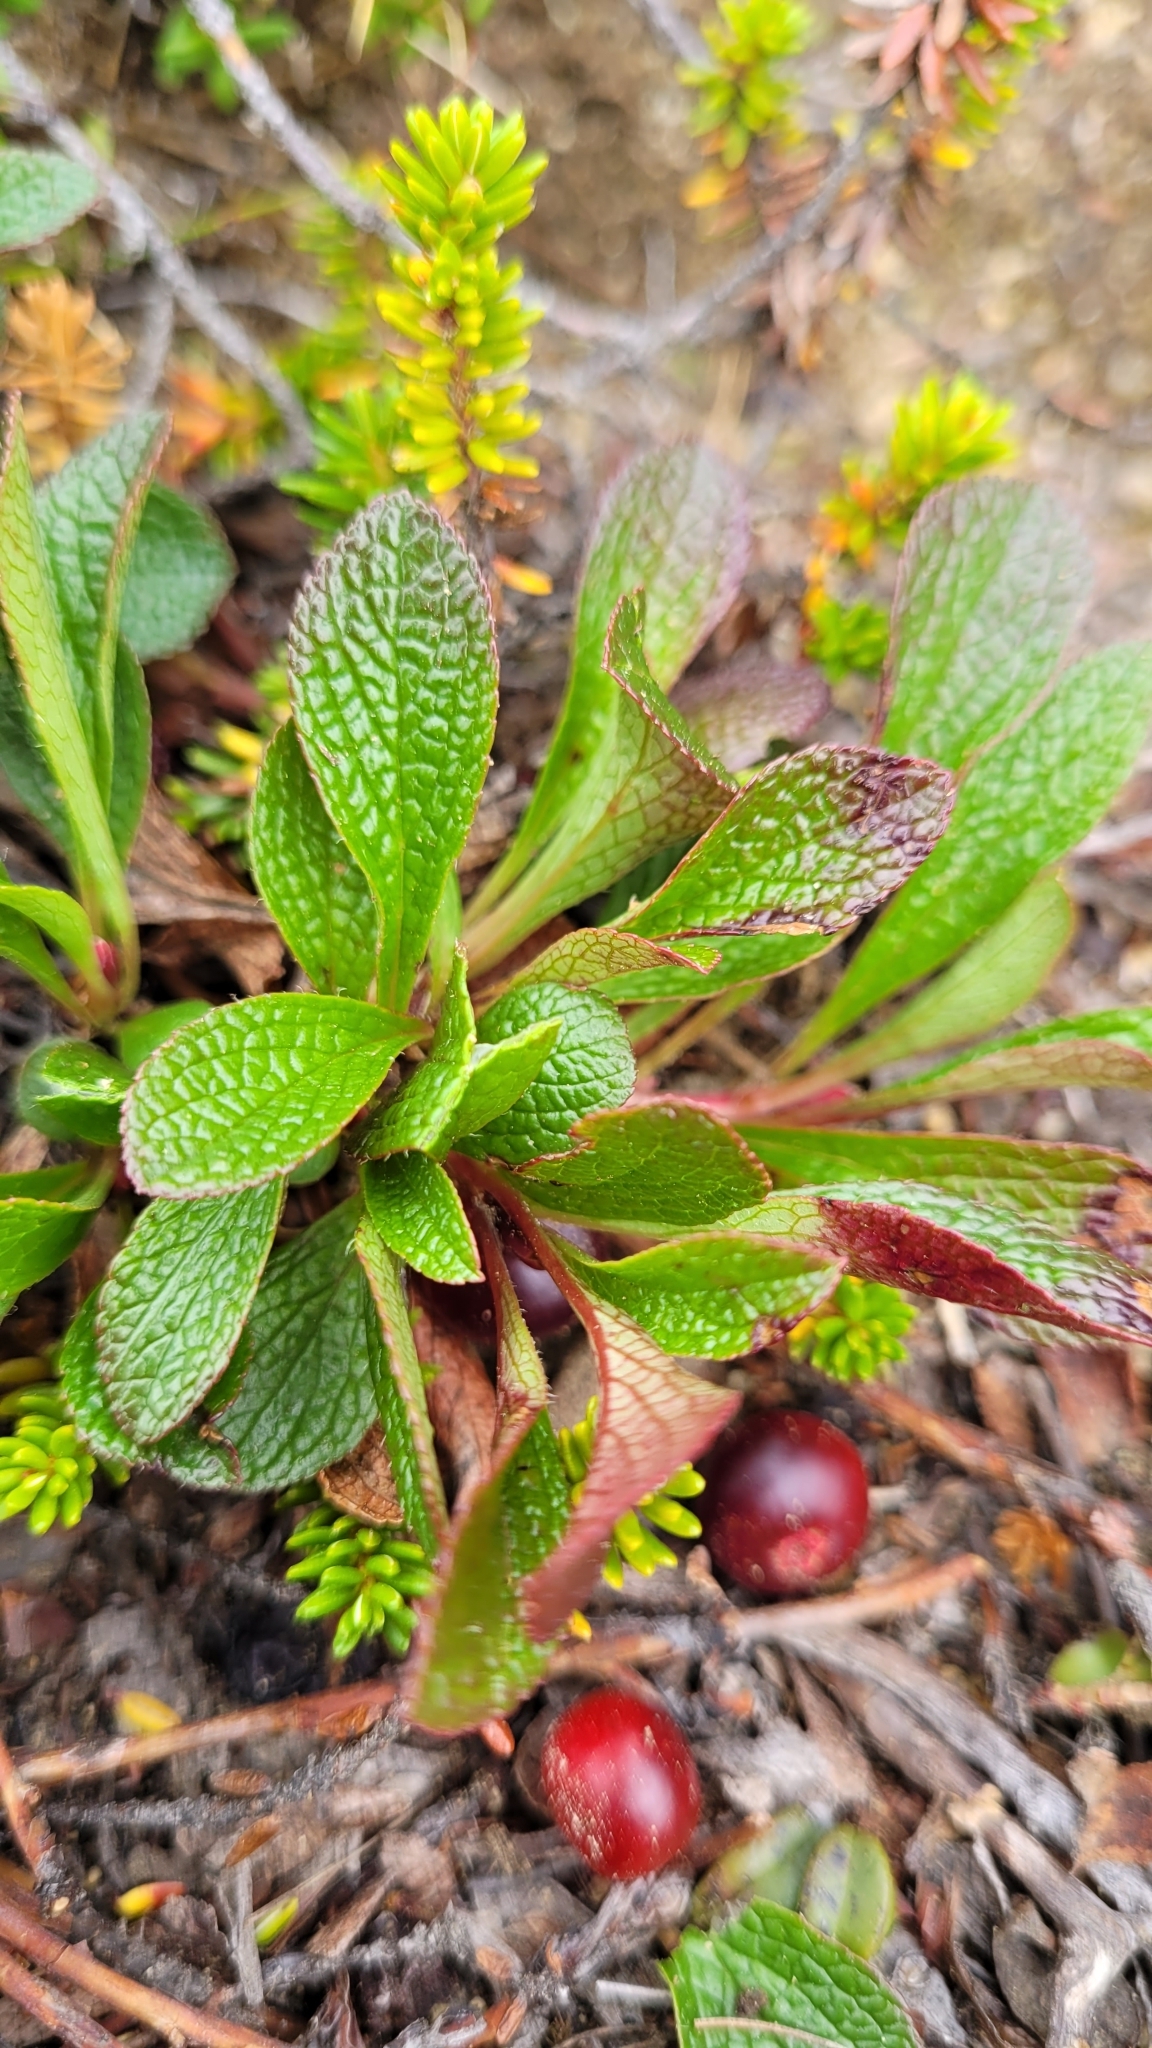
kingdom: Plantae
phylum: Tracheophyta
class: Magnoliopsida
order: Ericales
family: Ericaceae
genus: Arctostaphylos
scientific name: Arctostaphylos alpinus
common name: Alpine bearberry
